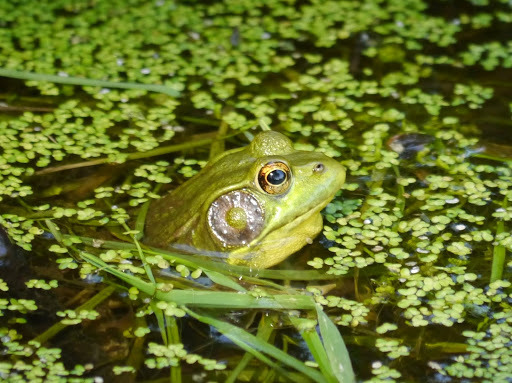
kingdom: Animalia
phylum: Chordata
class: Amphibia
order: Anura
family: Ranidae
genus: Lithobates
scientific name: Lithobates clamitans
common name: Green frog
